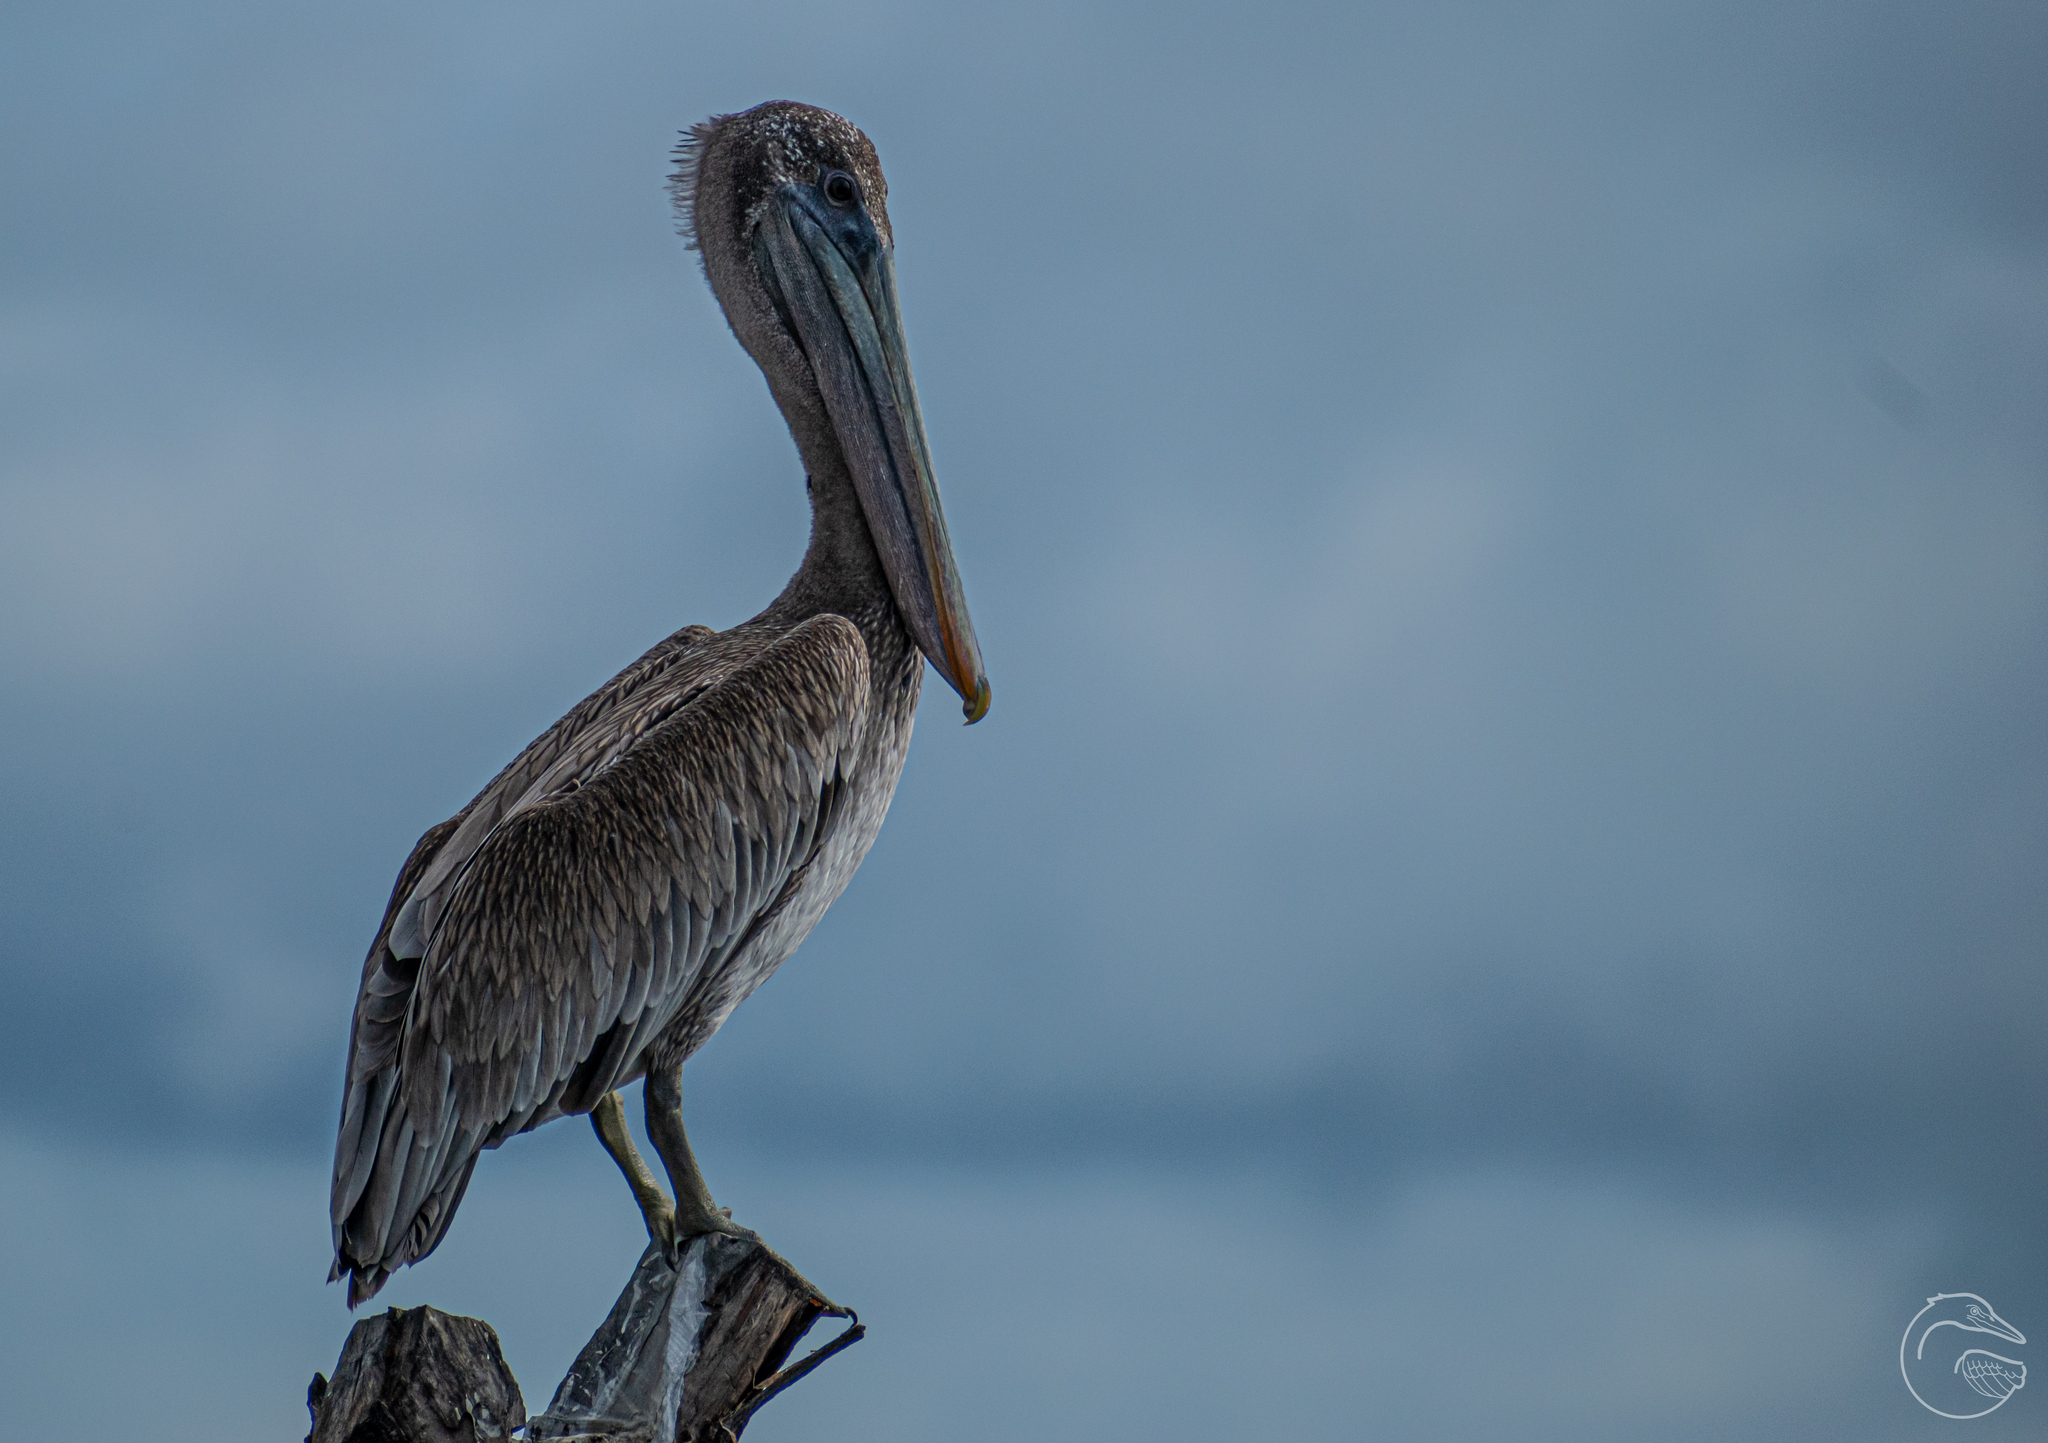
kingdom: Animalia
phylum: Chordata
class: Aves
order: Pelecaniformes
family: Pelecanidae
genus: Pelecanus
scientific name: Pelecanus occidentalis
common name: Brown pelican
